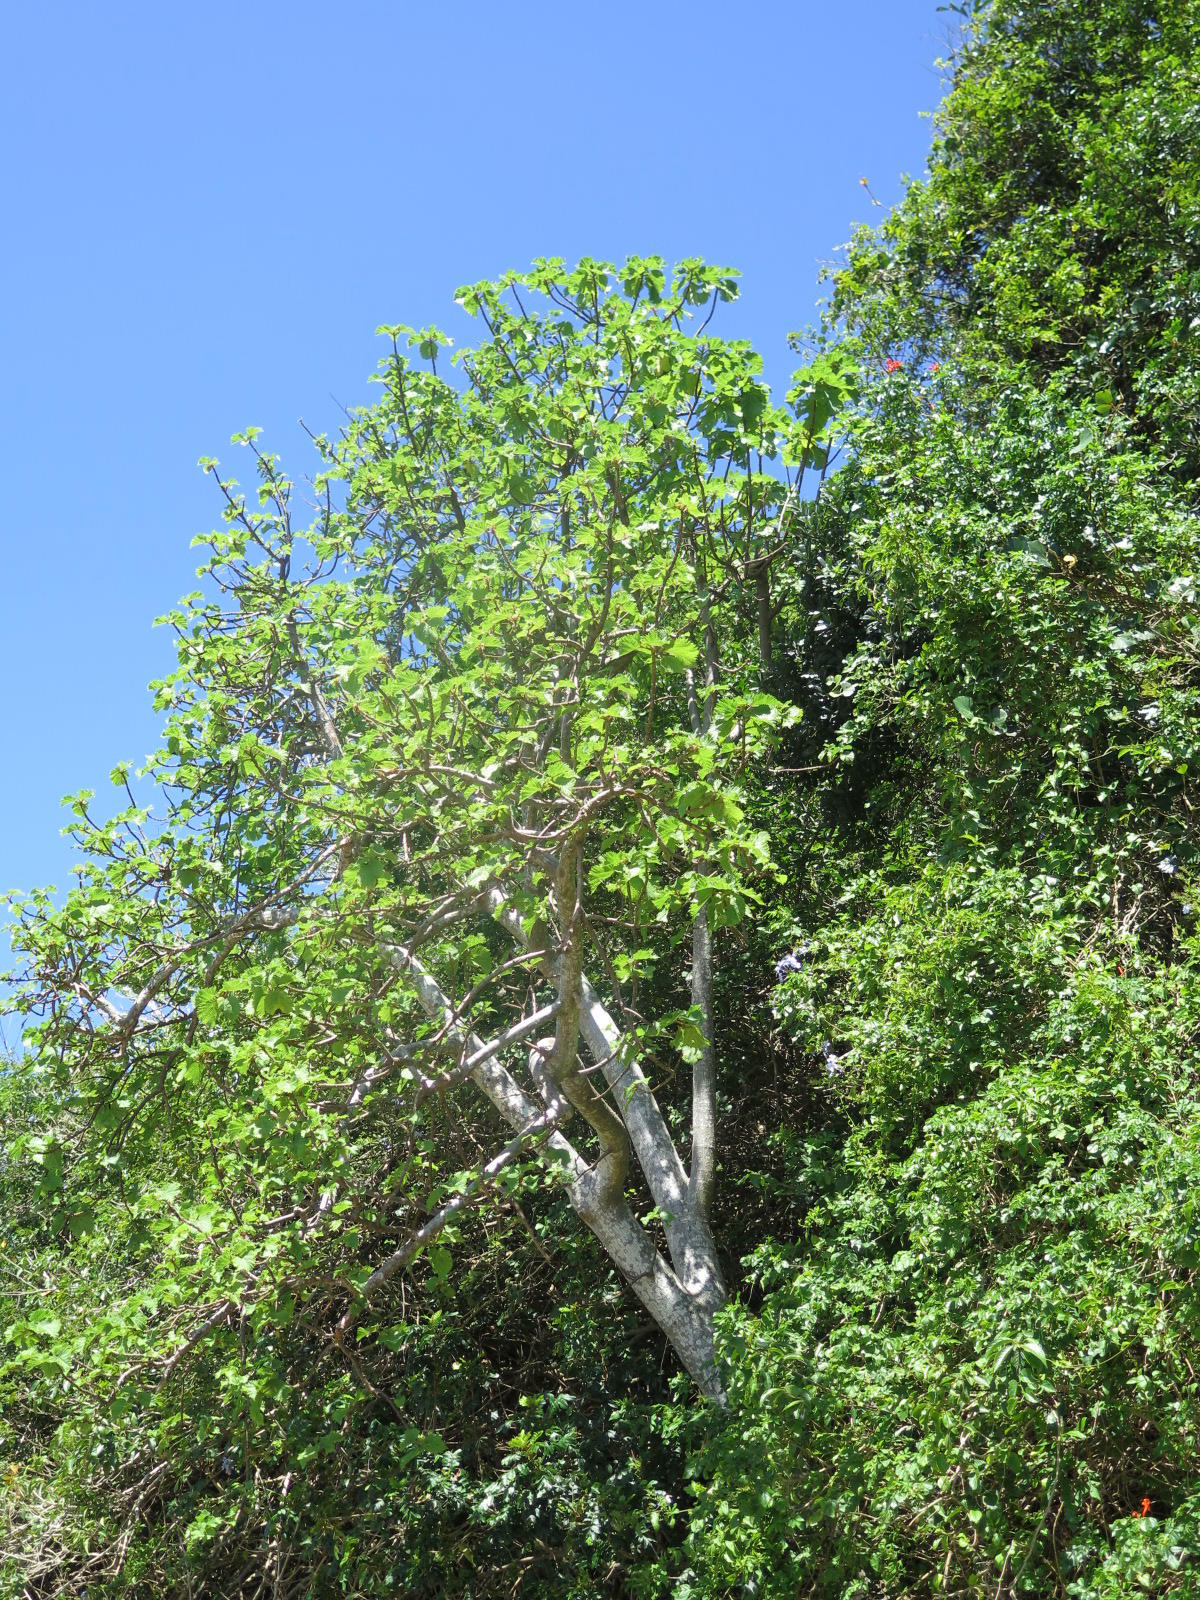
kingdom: Plantae
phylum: Tracheophyta
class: Magnoliopsida
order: Rosales
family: Urticaceae
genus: Obetia
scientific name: Obetia tenax
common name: Rock tree nettle
